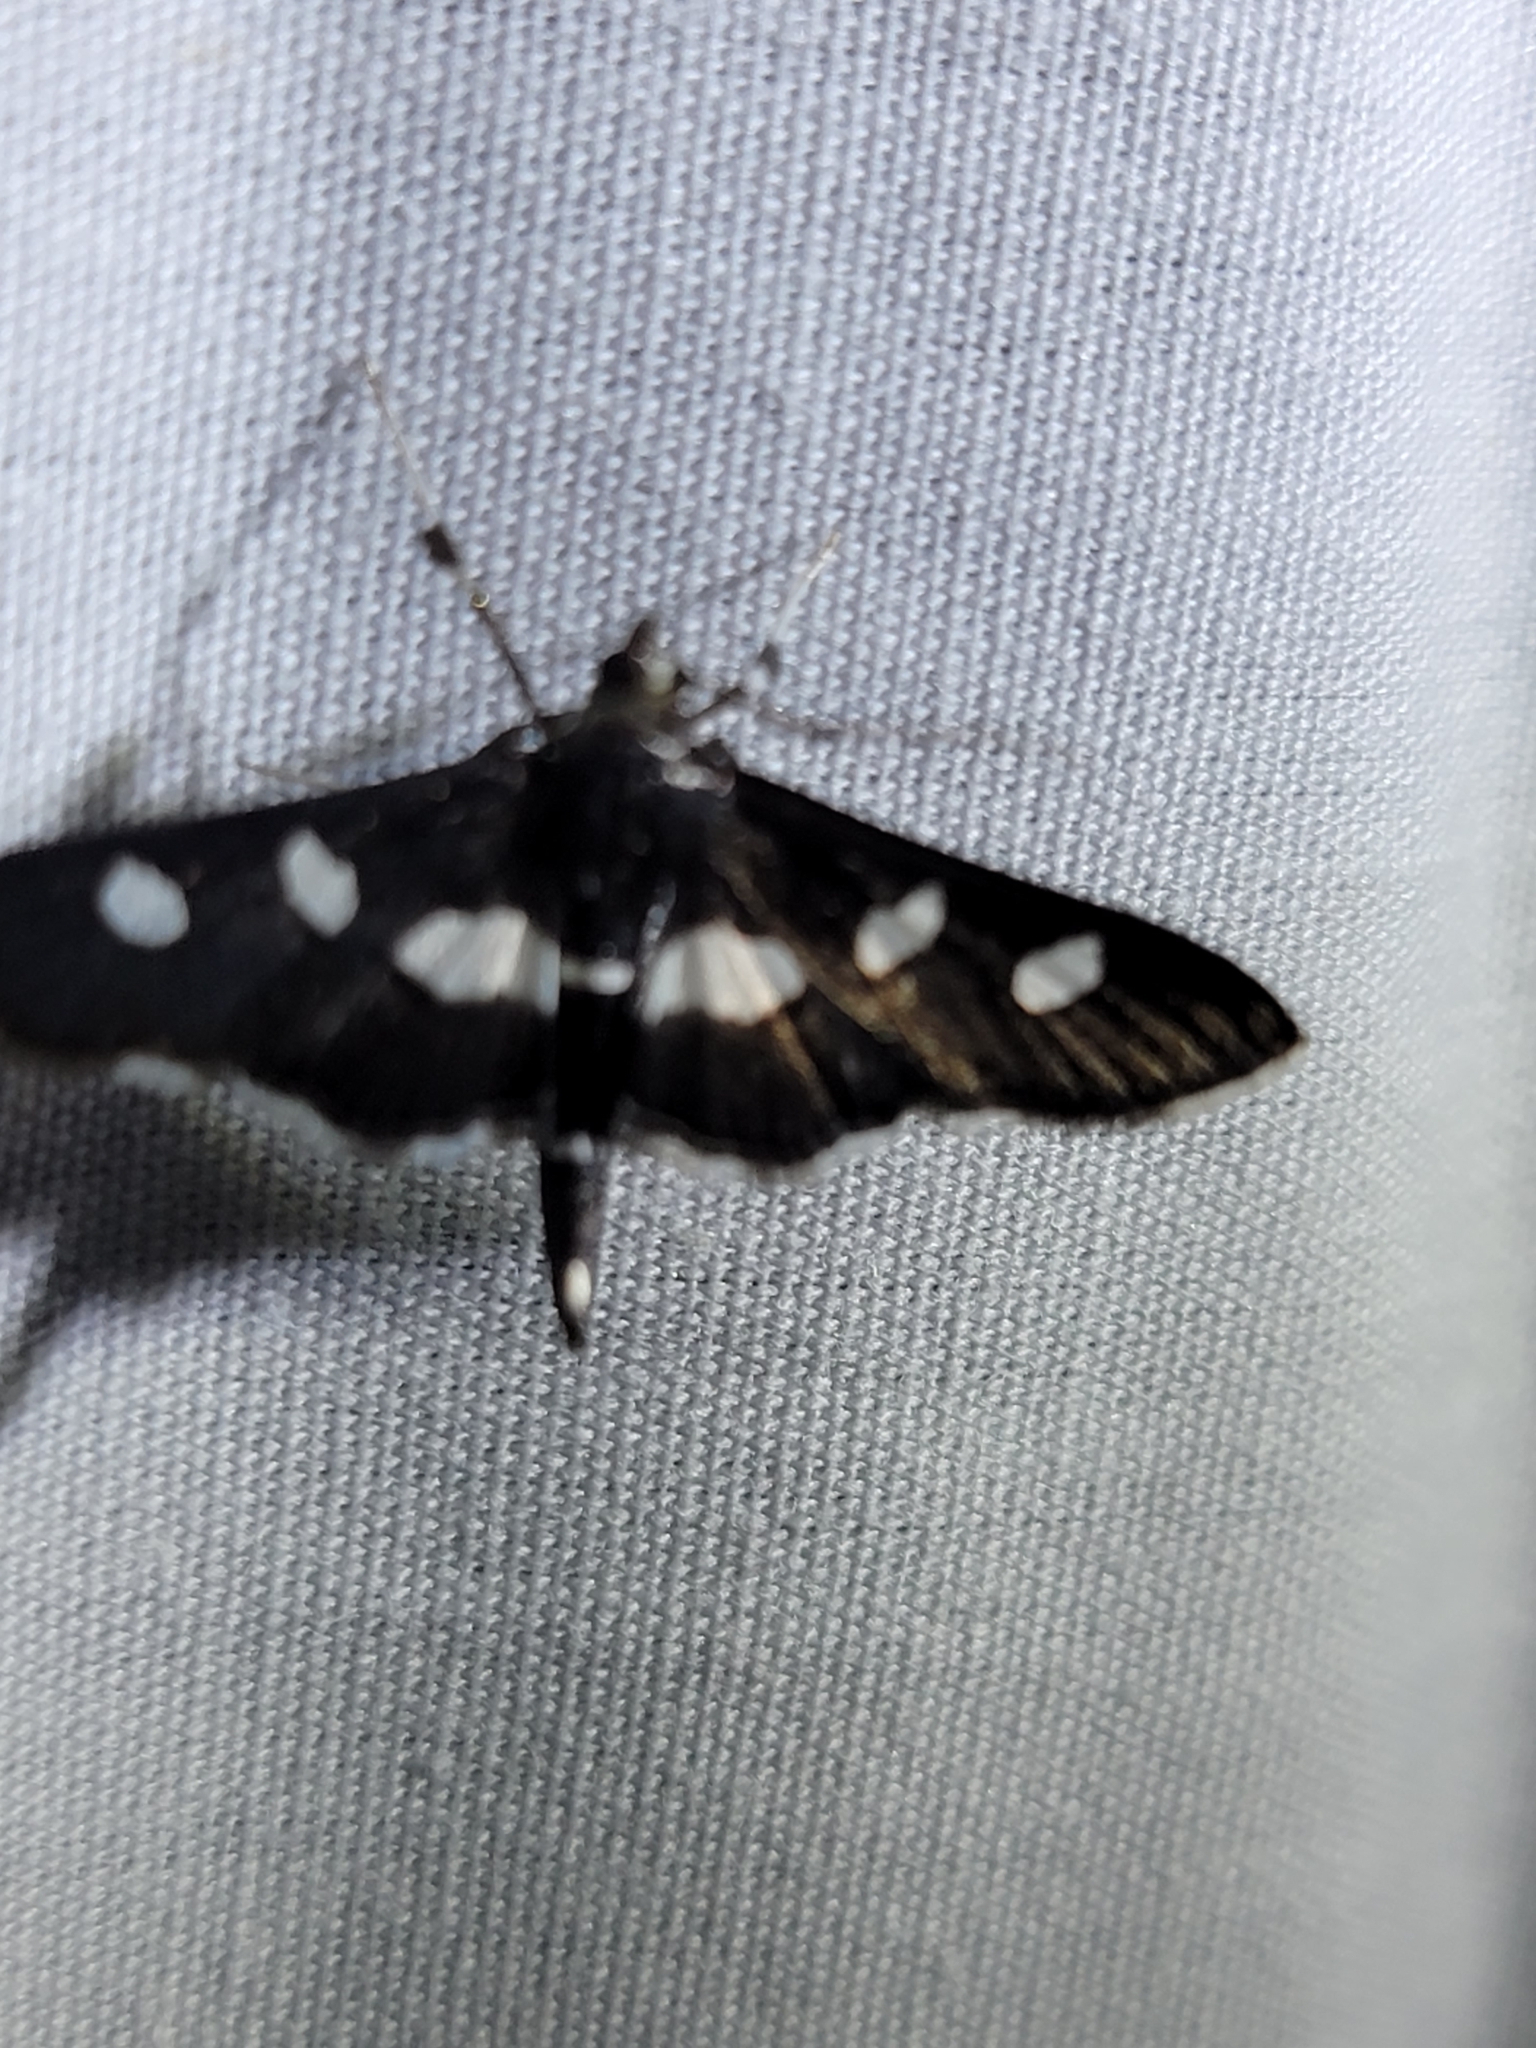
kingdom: Animalia
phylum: Arthropoda
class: Insecta
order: Lepidoptera
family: Crambidae
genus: Desmia
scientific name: Desmia
